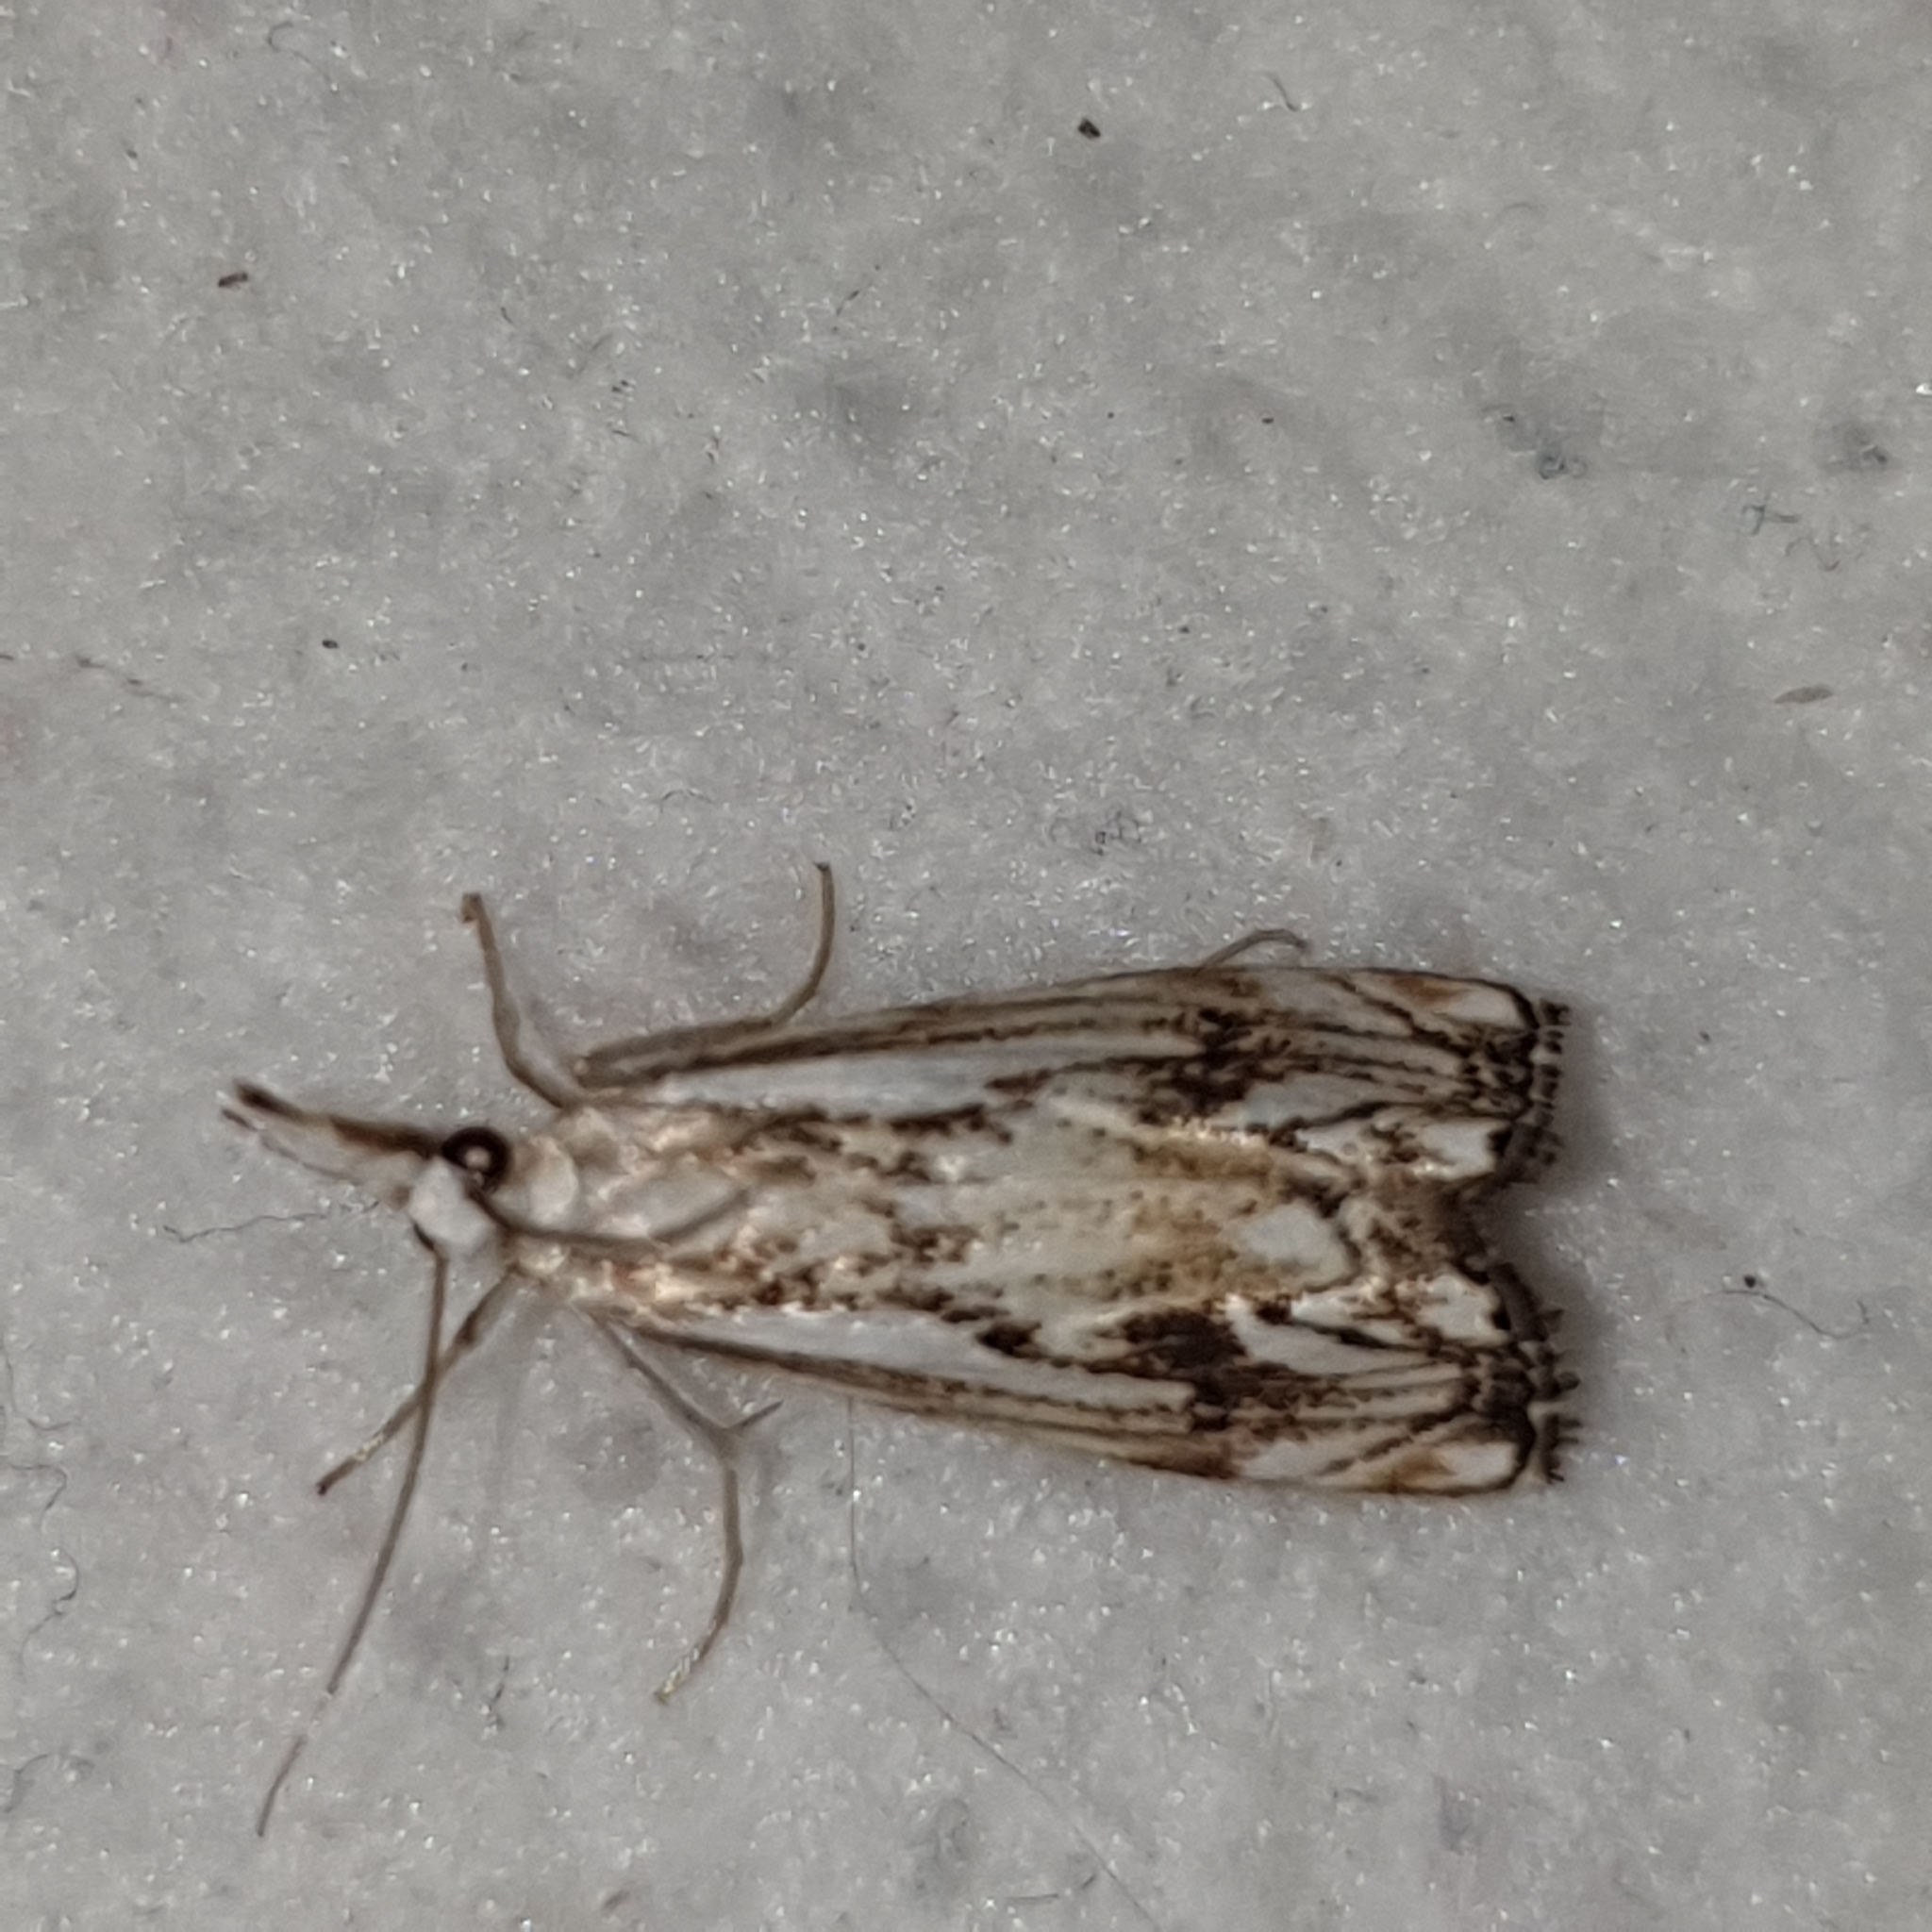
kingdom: Animalia
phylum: Arthropoda
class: Insecta
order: Lepidoptera
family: Crambidae
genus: Catoptria
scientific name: Catoptria falsella
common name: Chequered grass-veneer
